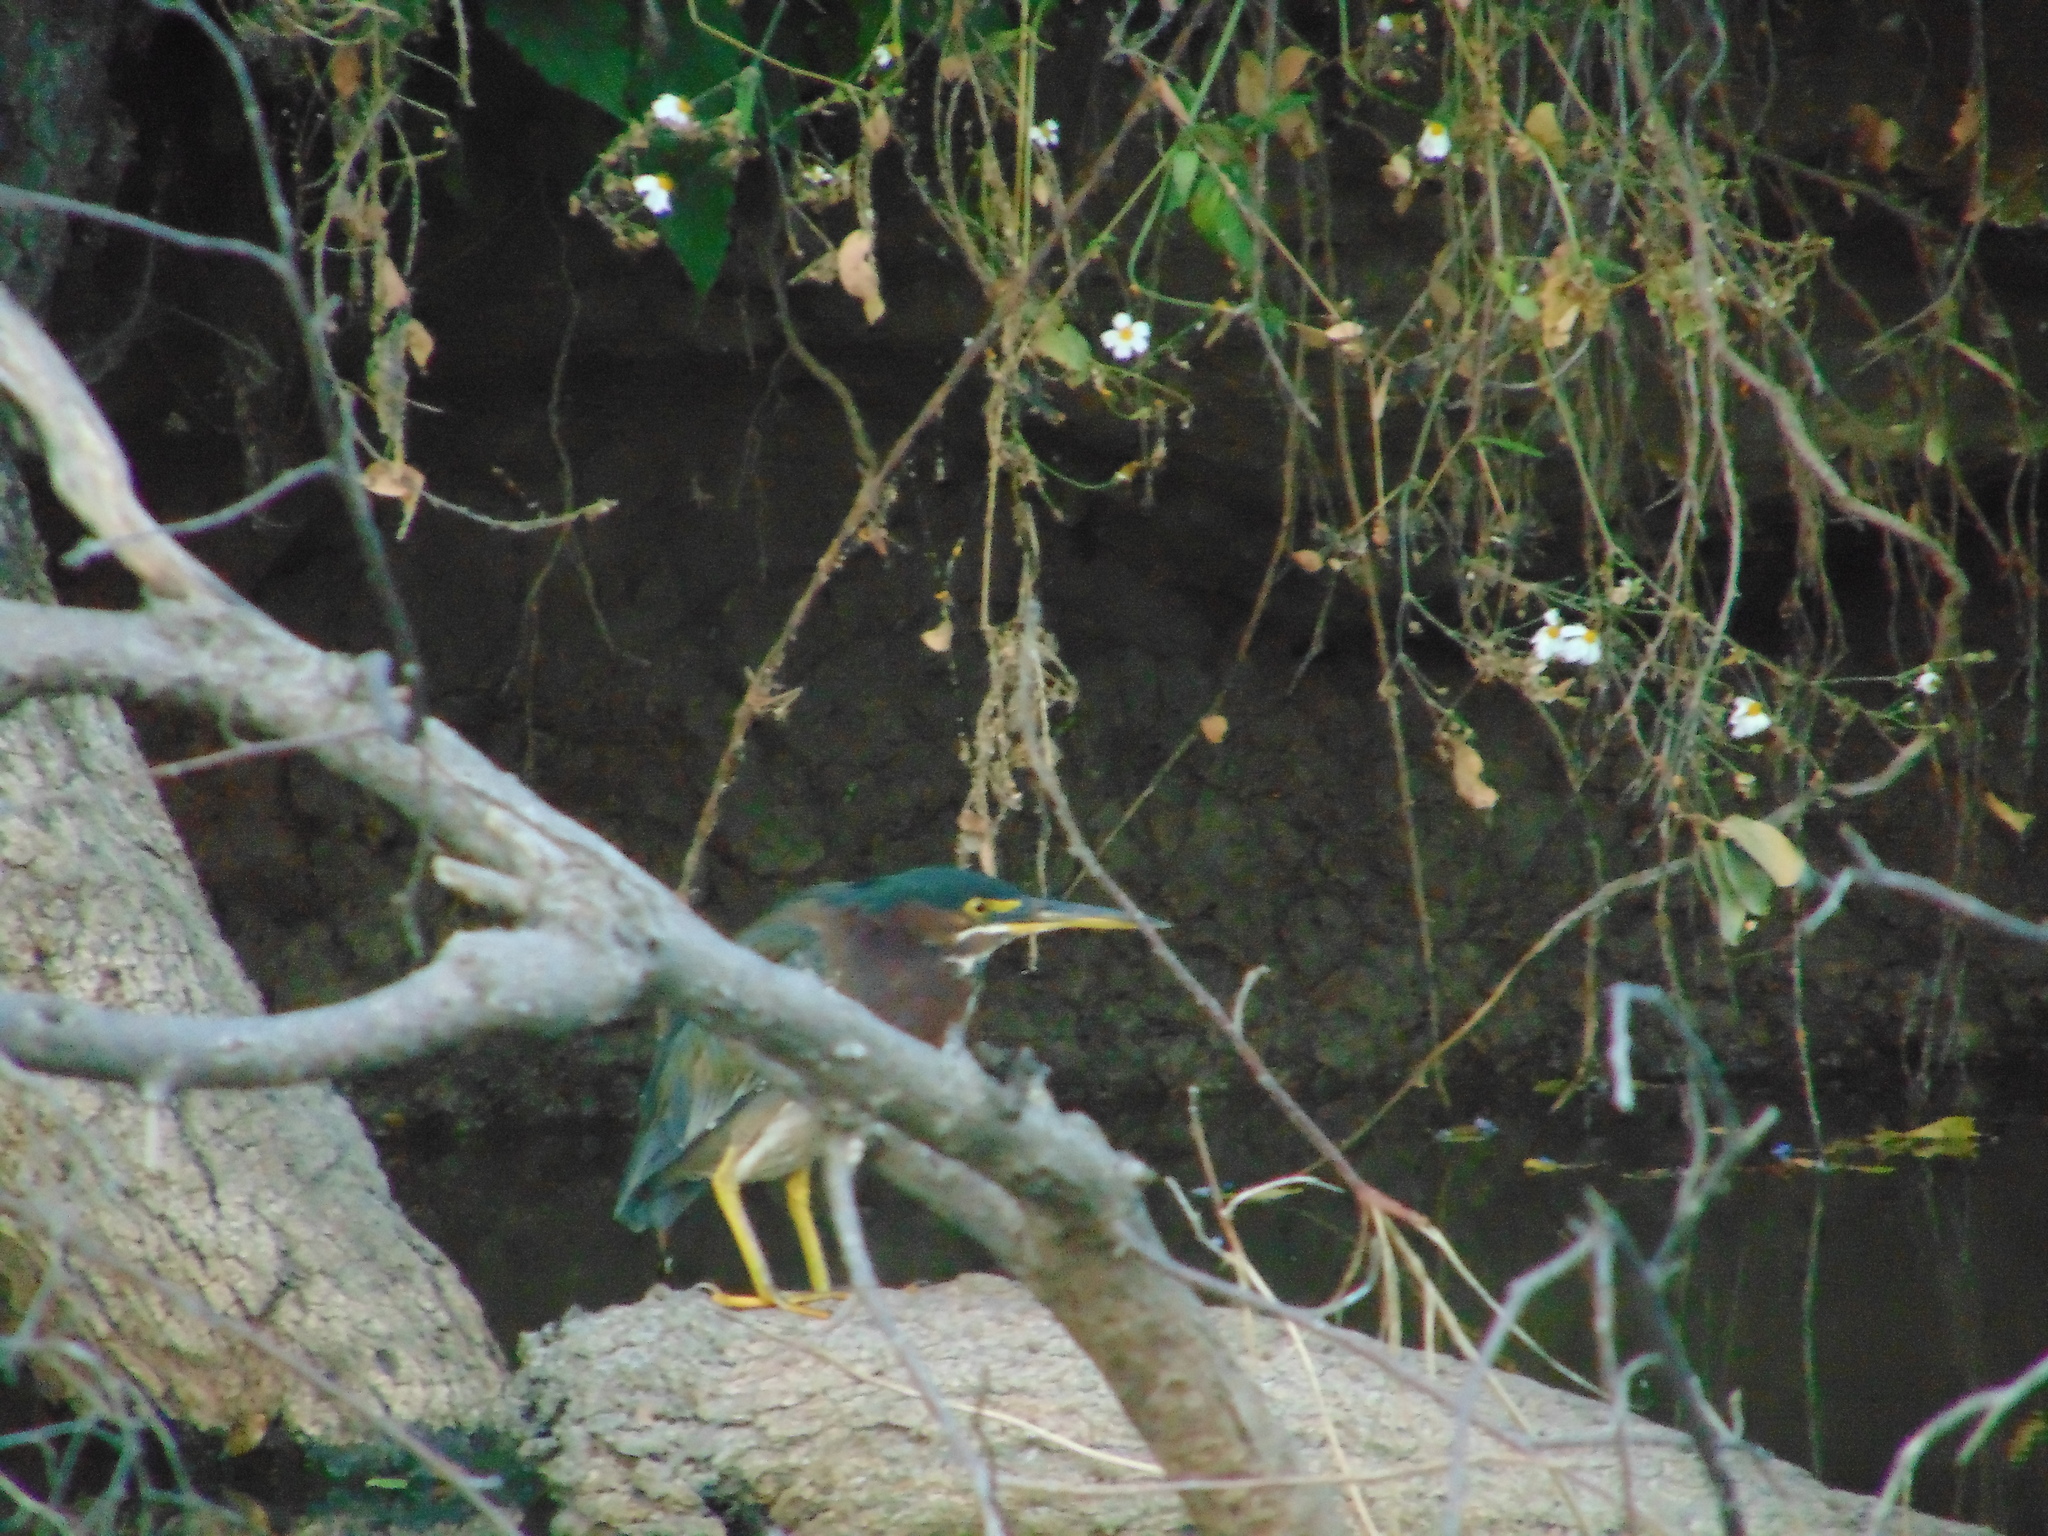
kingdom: Animalia
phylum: Chordata
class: Aves
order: Pelecaniformes
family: Ardeidae
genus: Butorides
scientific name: Butorides virescens
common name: Green heron
